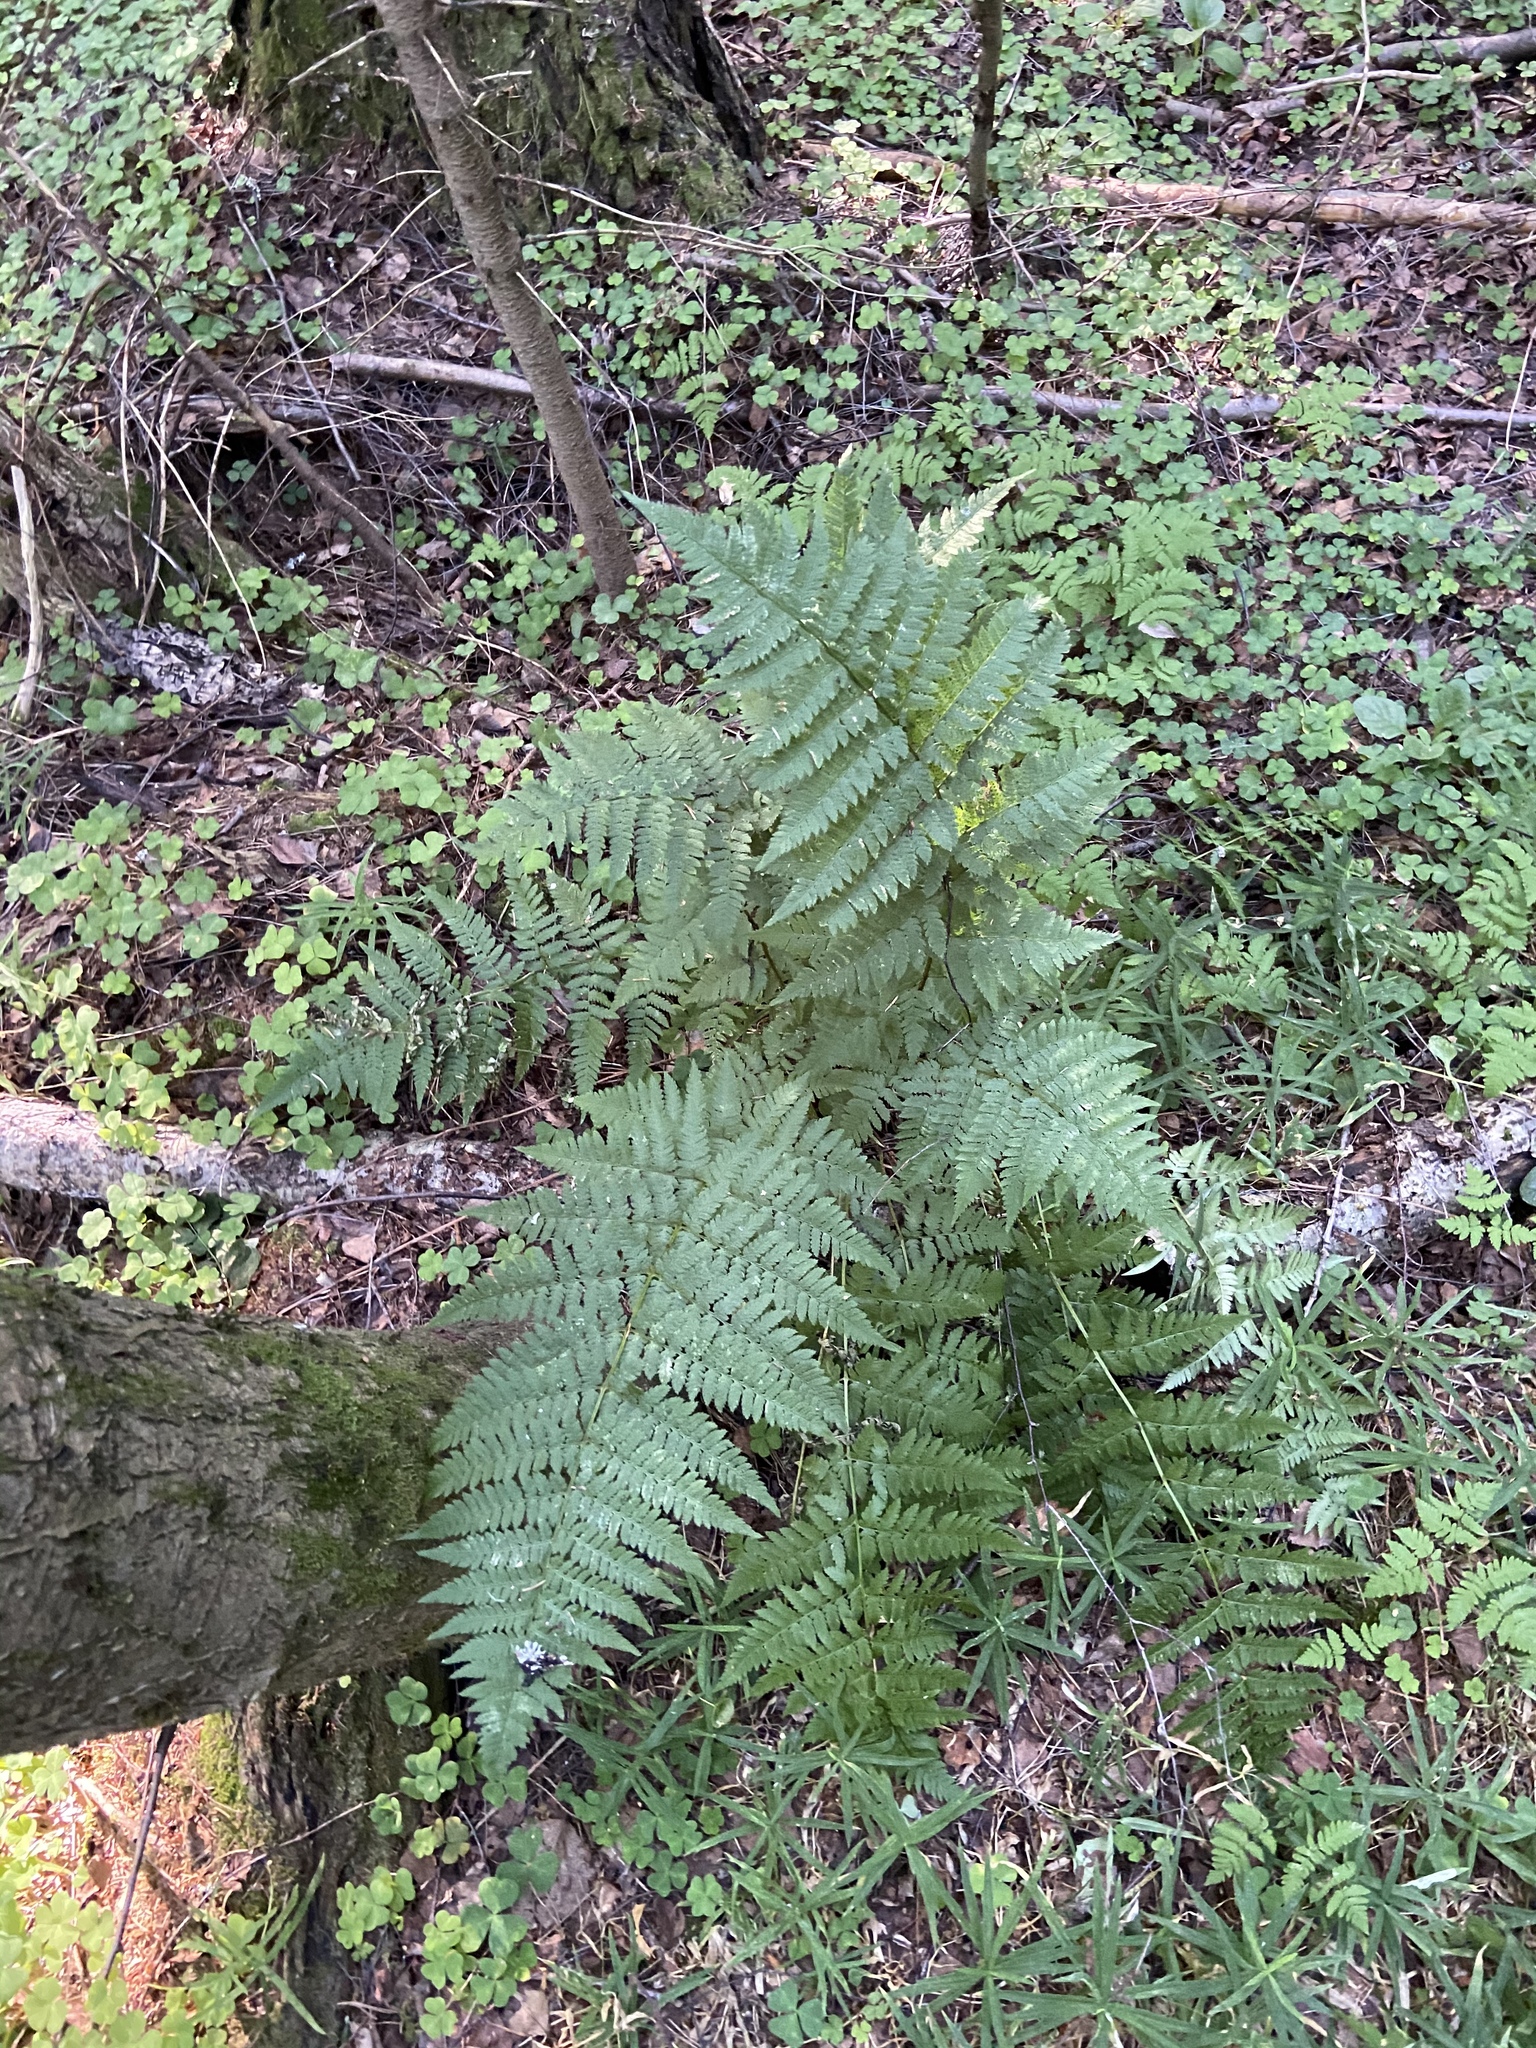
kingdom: Plantae
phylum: Tracheophyta
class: Polypodiopsida
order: Polypodiales
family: Dryopteridaceae
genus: Dryopteris
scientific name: Dryopteris carthusiana
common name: Narrow buckler-fern
